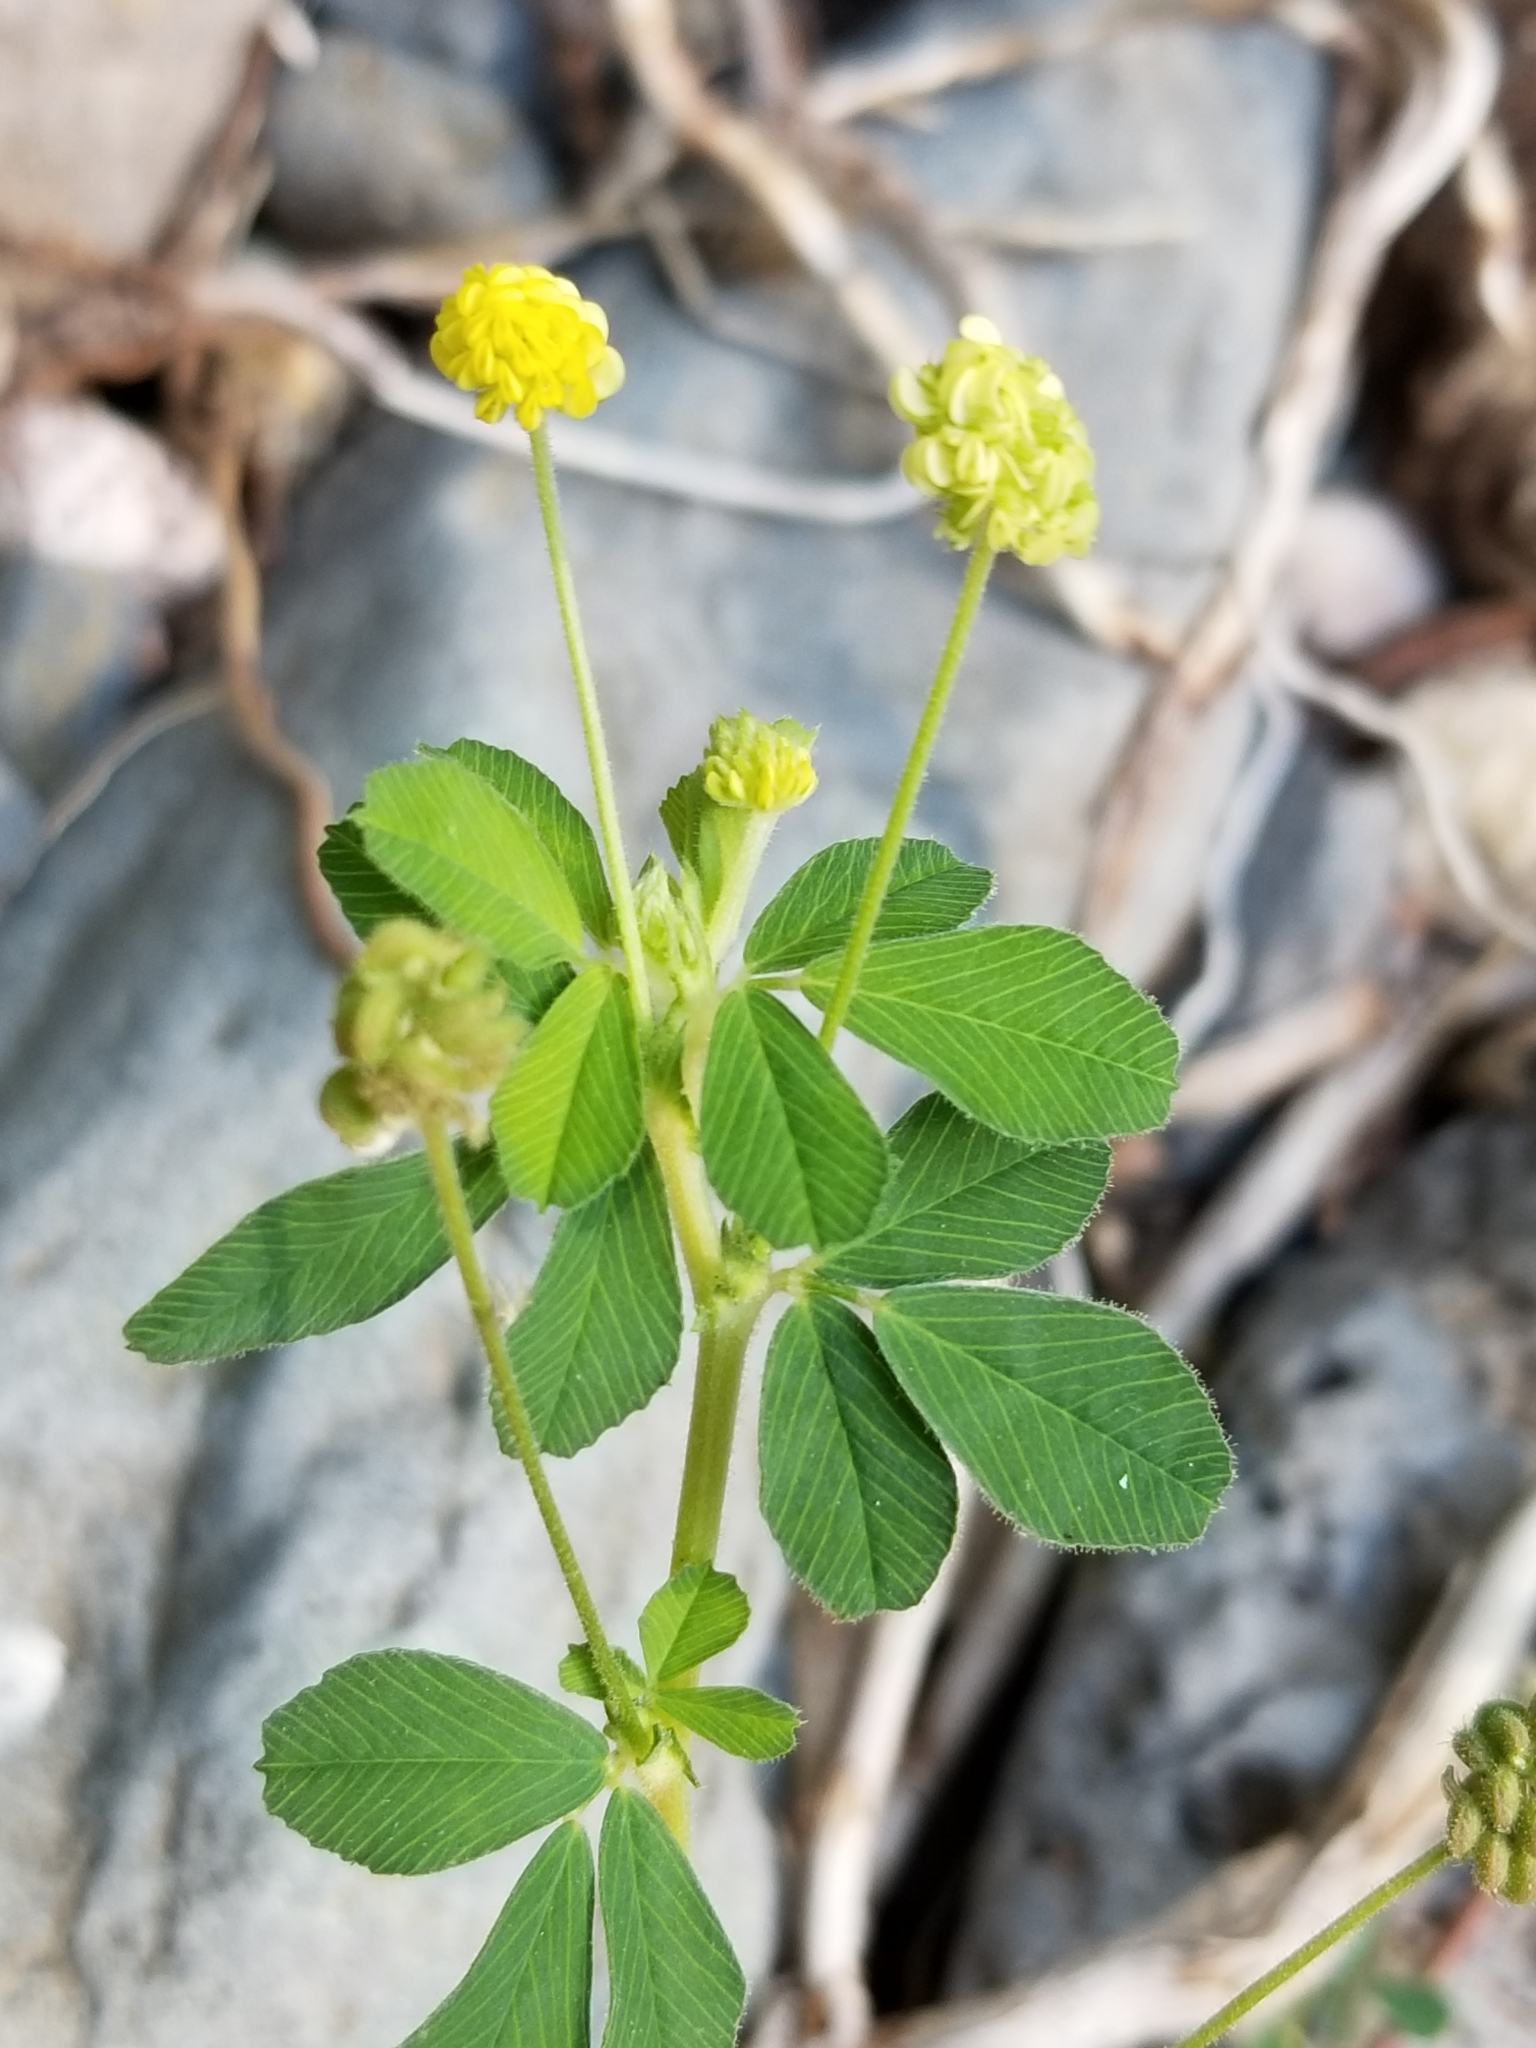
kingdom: Plantae
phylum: Tracheophyta
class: Magnoliopsida
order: Fabales
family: Fabaceae
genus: Medicago
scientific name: Medicago lupulina
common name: Black medick
